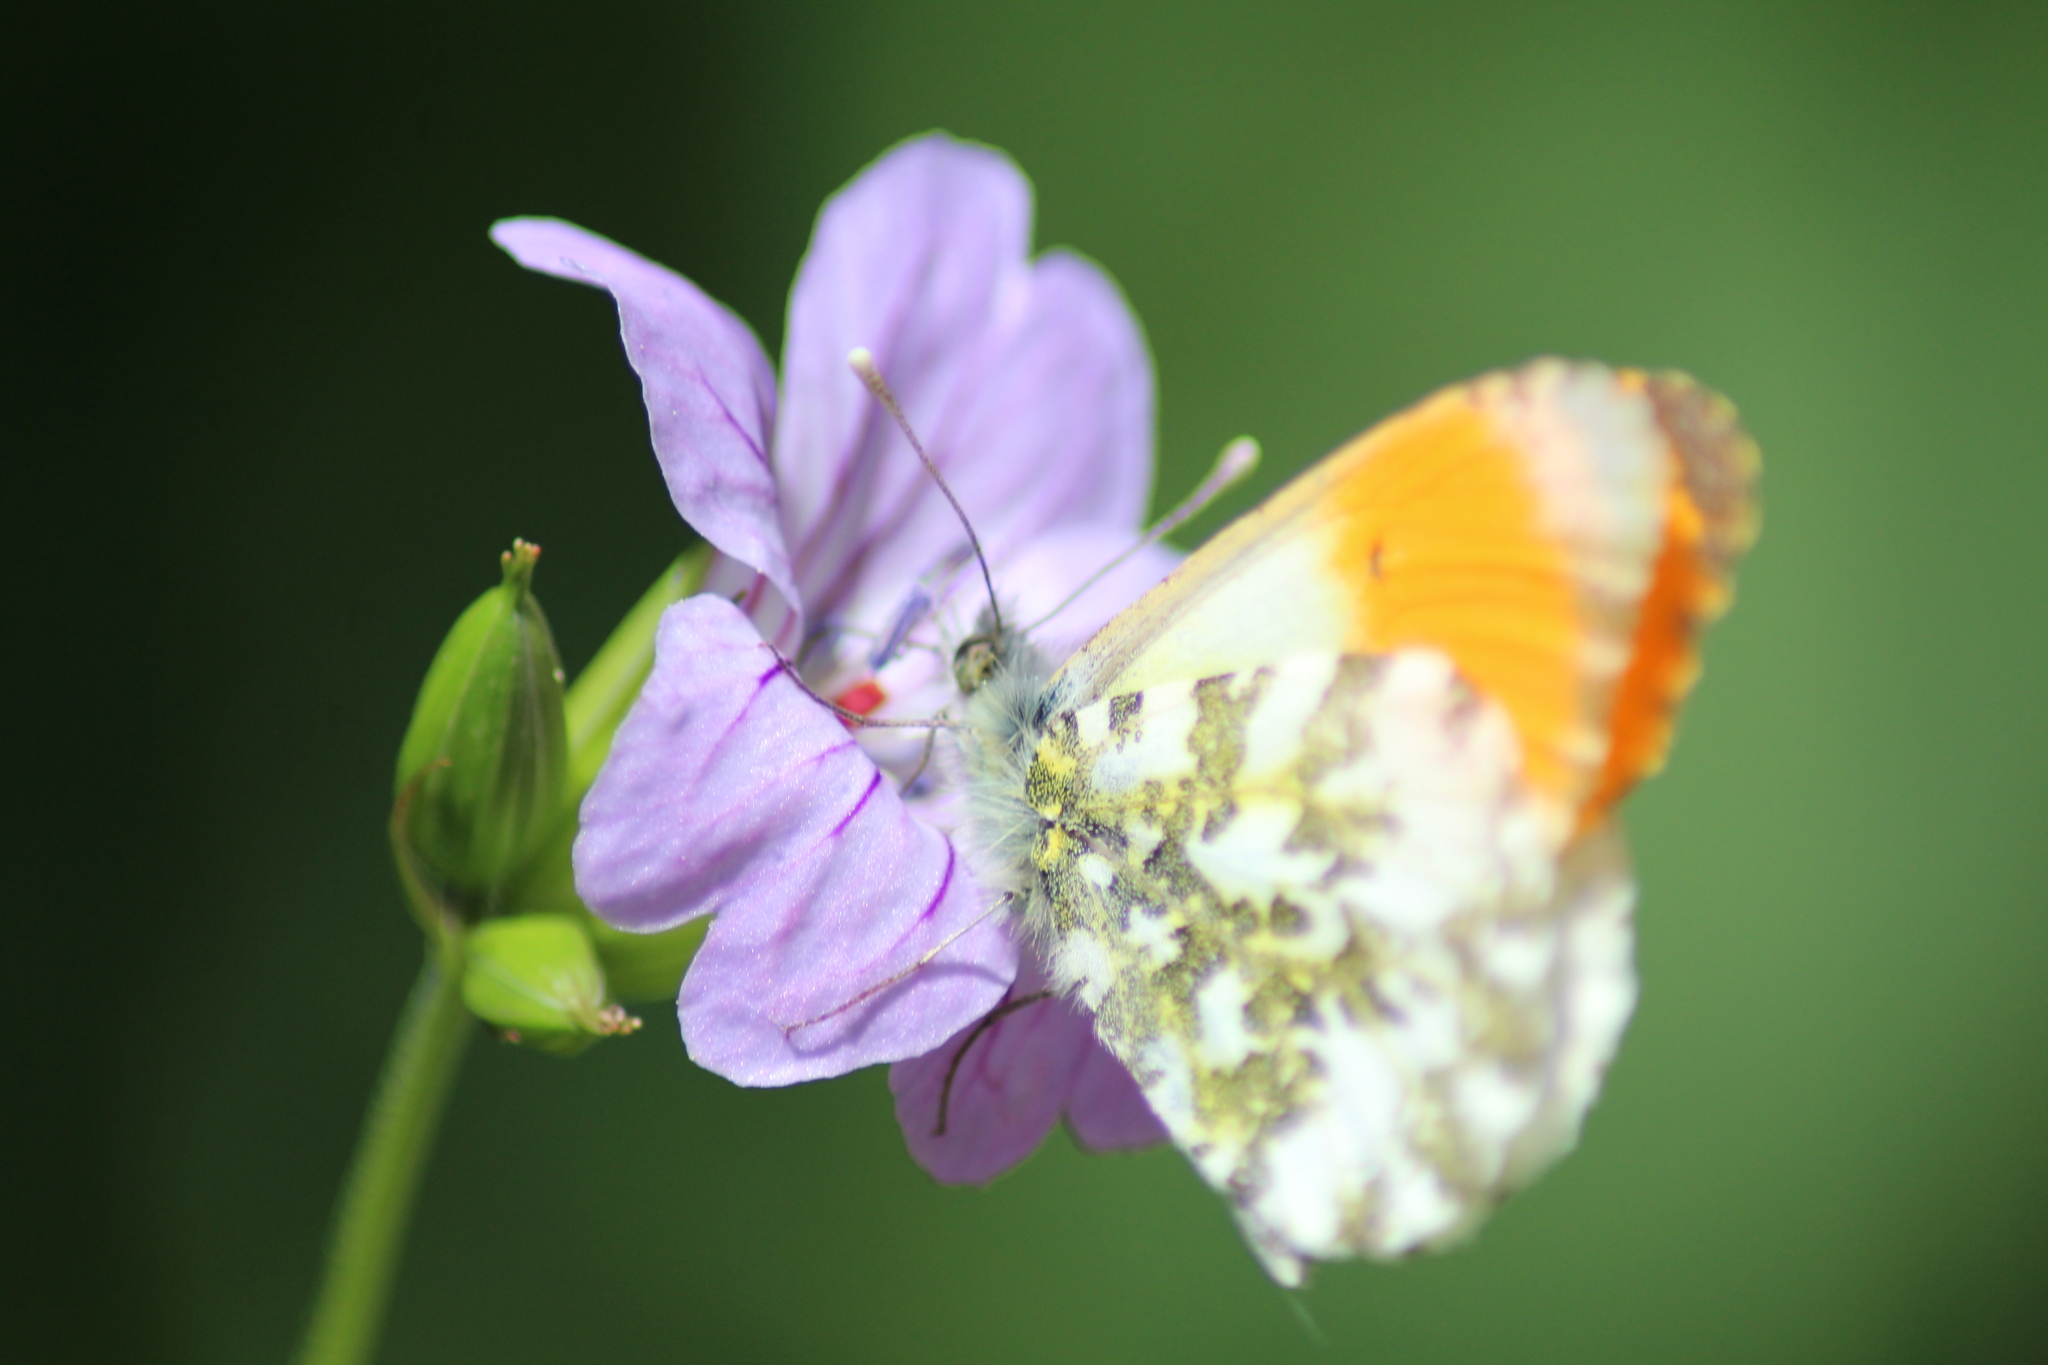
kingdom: Animalia
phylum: Arthropoda
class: Insecta
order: Lepidoptera
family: Pieridae
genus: Anthocharis
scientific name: Anthocharis cardamines
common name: Orange-tip
